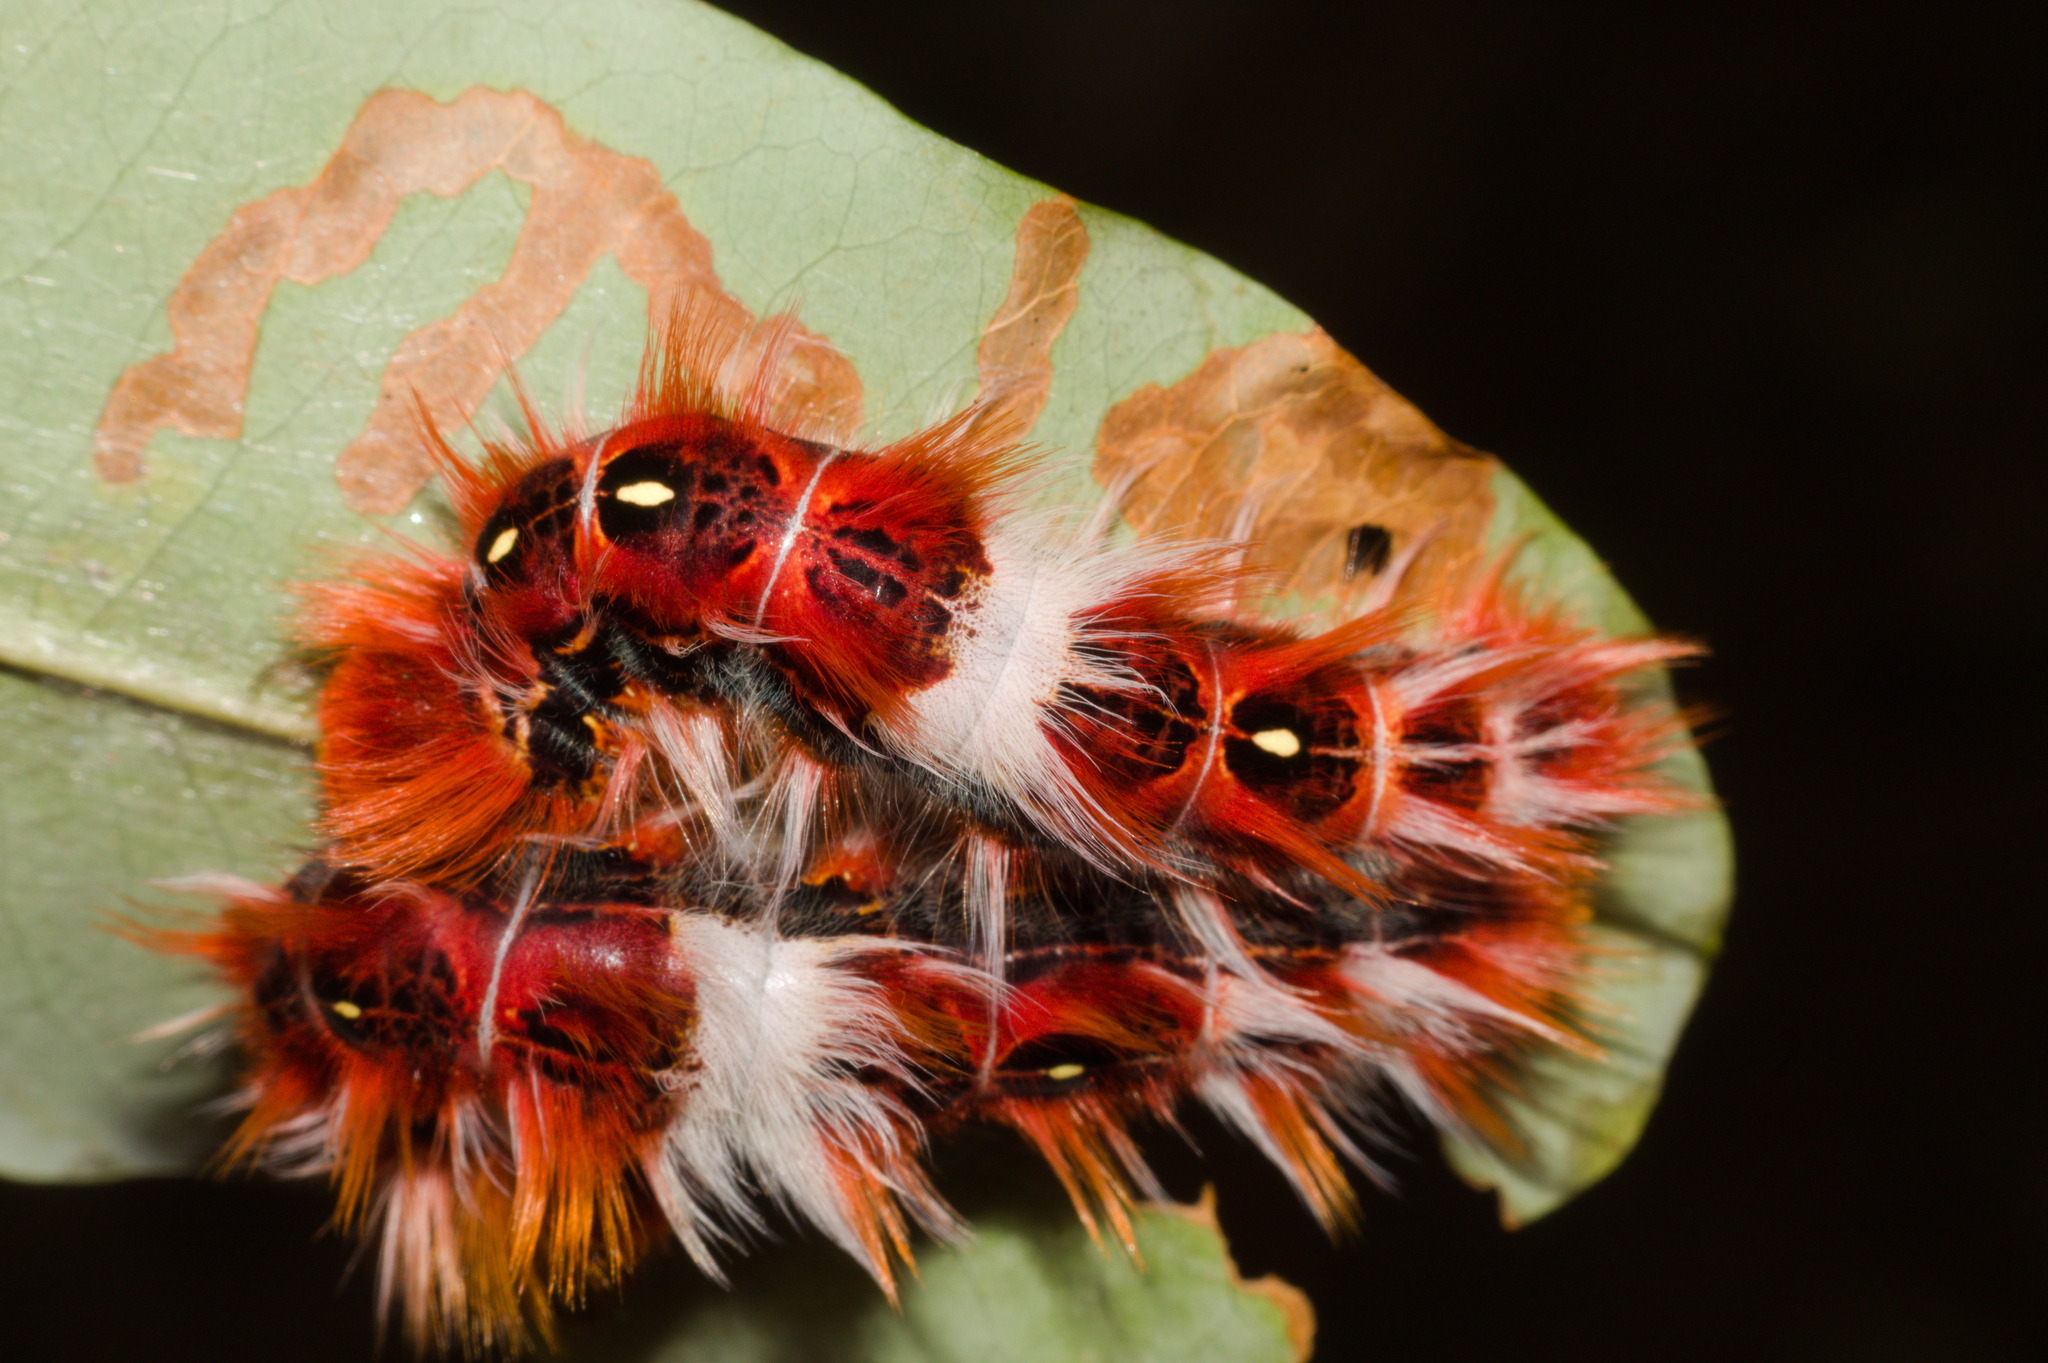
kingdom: Animalia
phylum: Arthropoda
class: Insecta
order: Lepidoptera
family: Nymphalidae
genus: Morpho
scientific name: Morpho epistrophus
